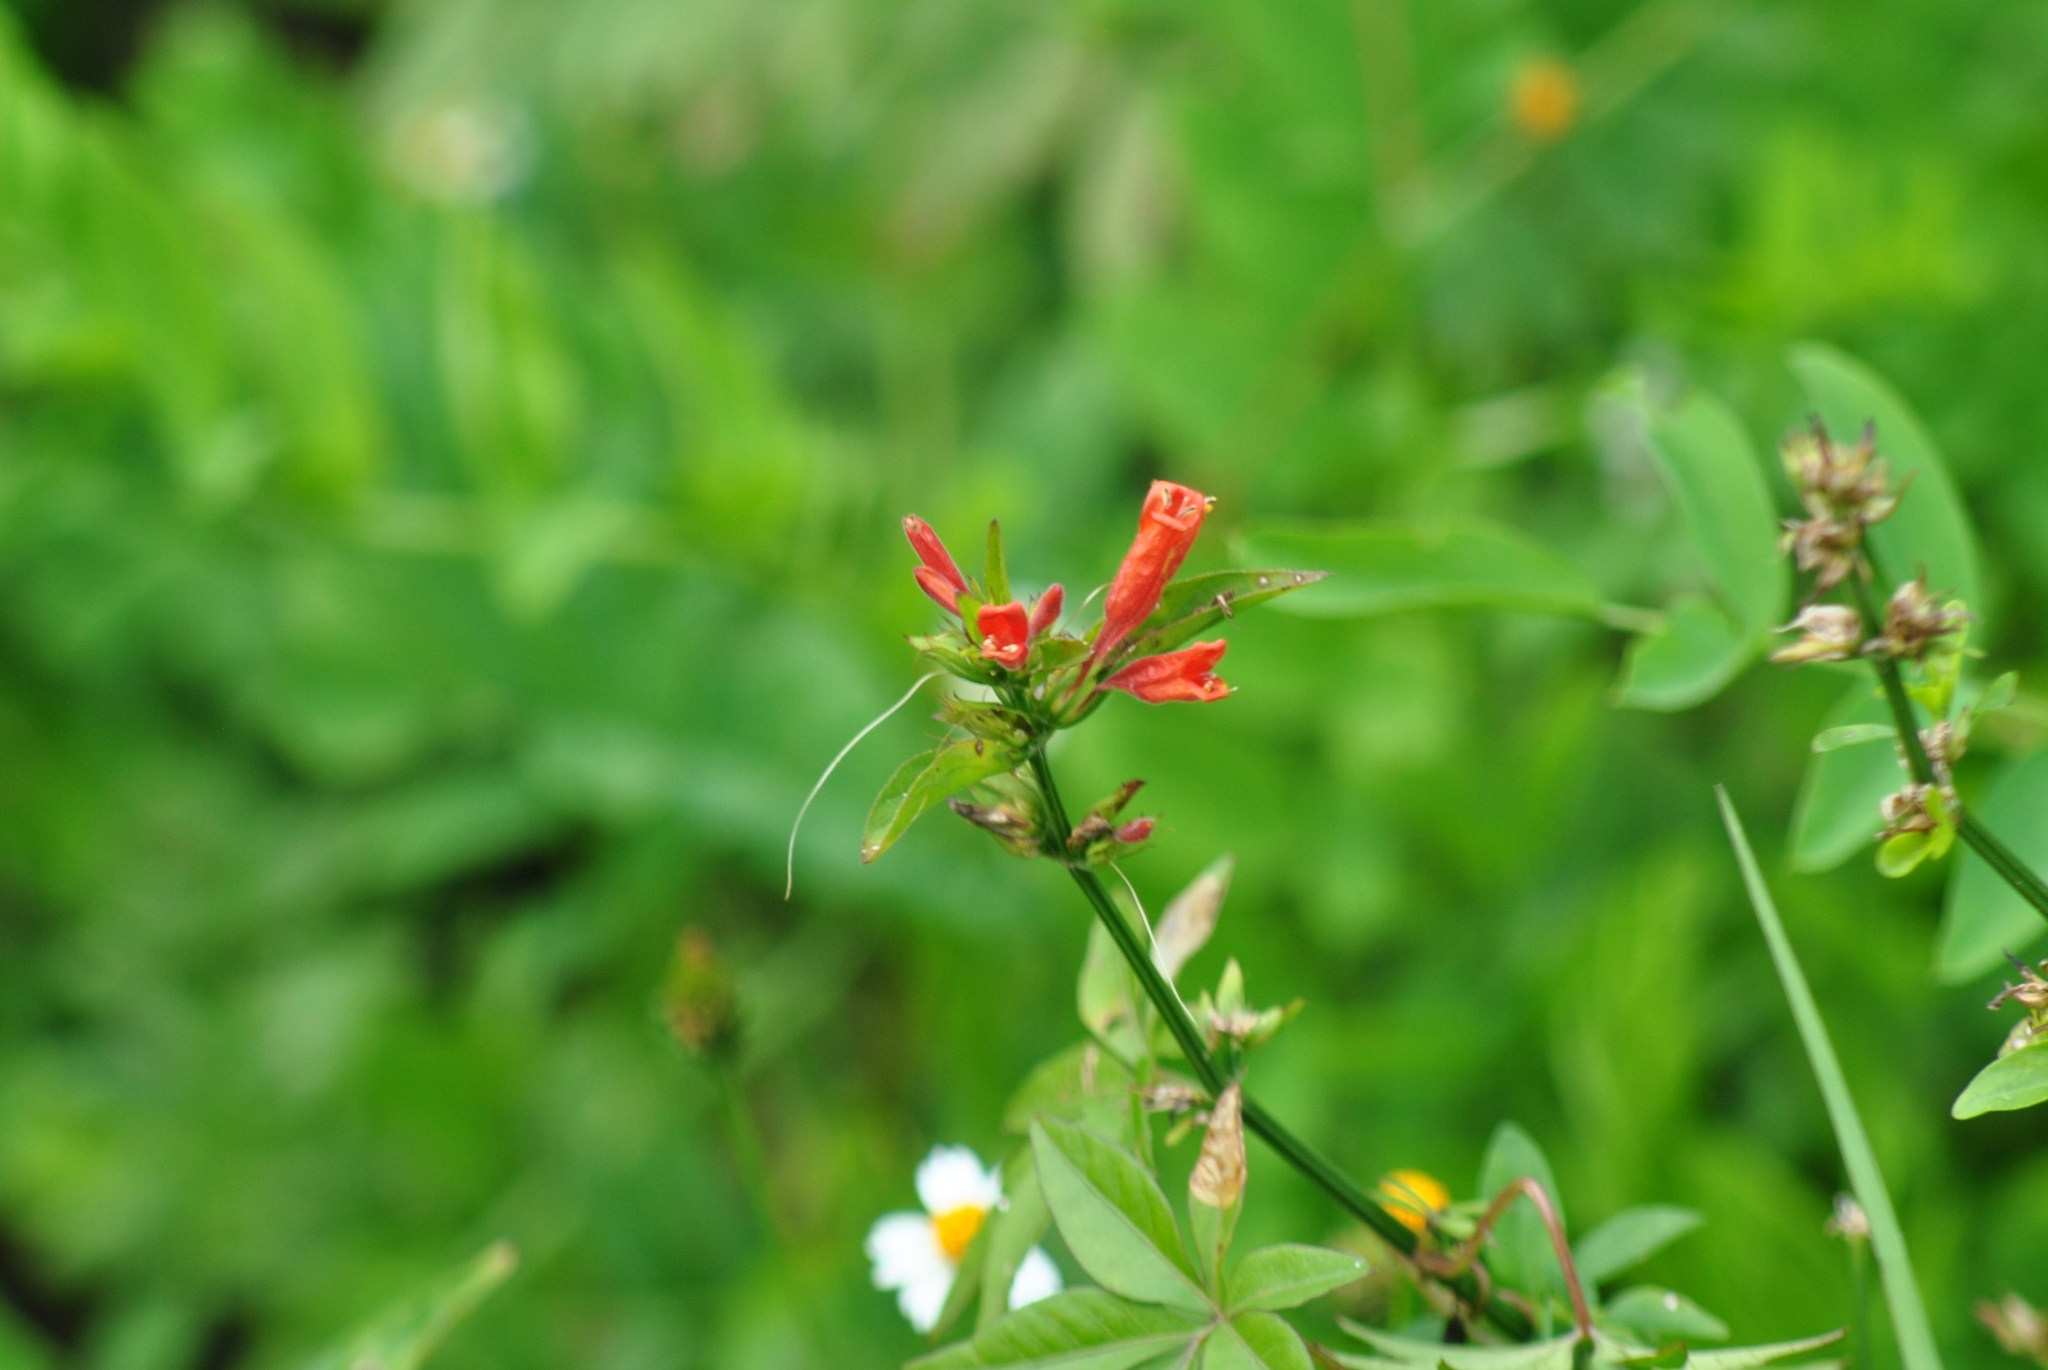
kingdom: Plantae
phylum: Tracheophyta
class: Magnoliopsida
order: Lamiales
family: Acanthaceae
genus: Dicliptera
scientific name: Dicliptera squarrosa
